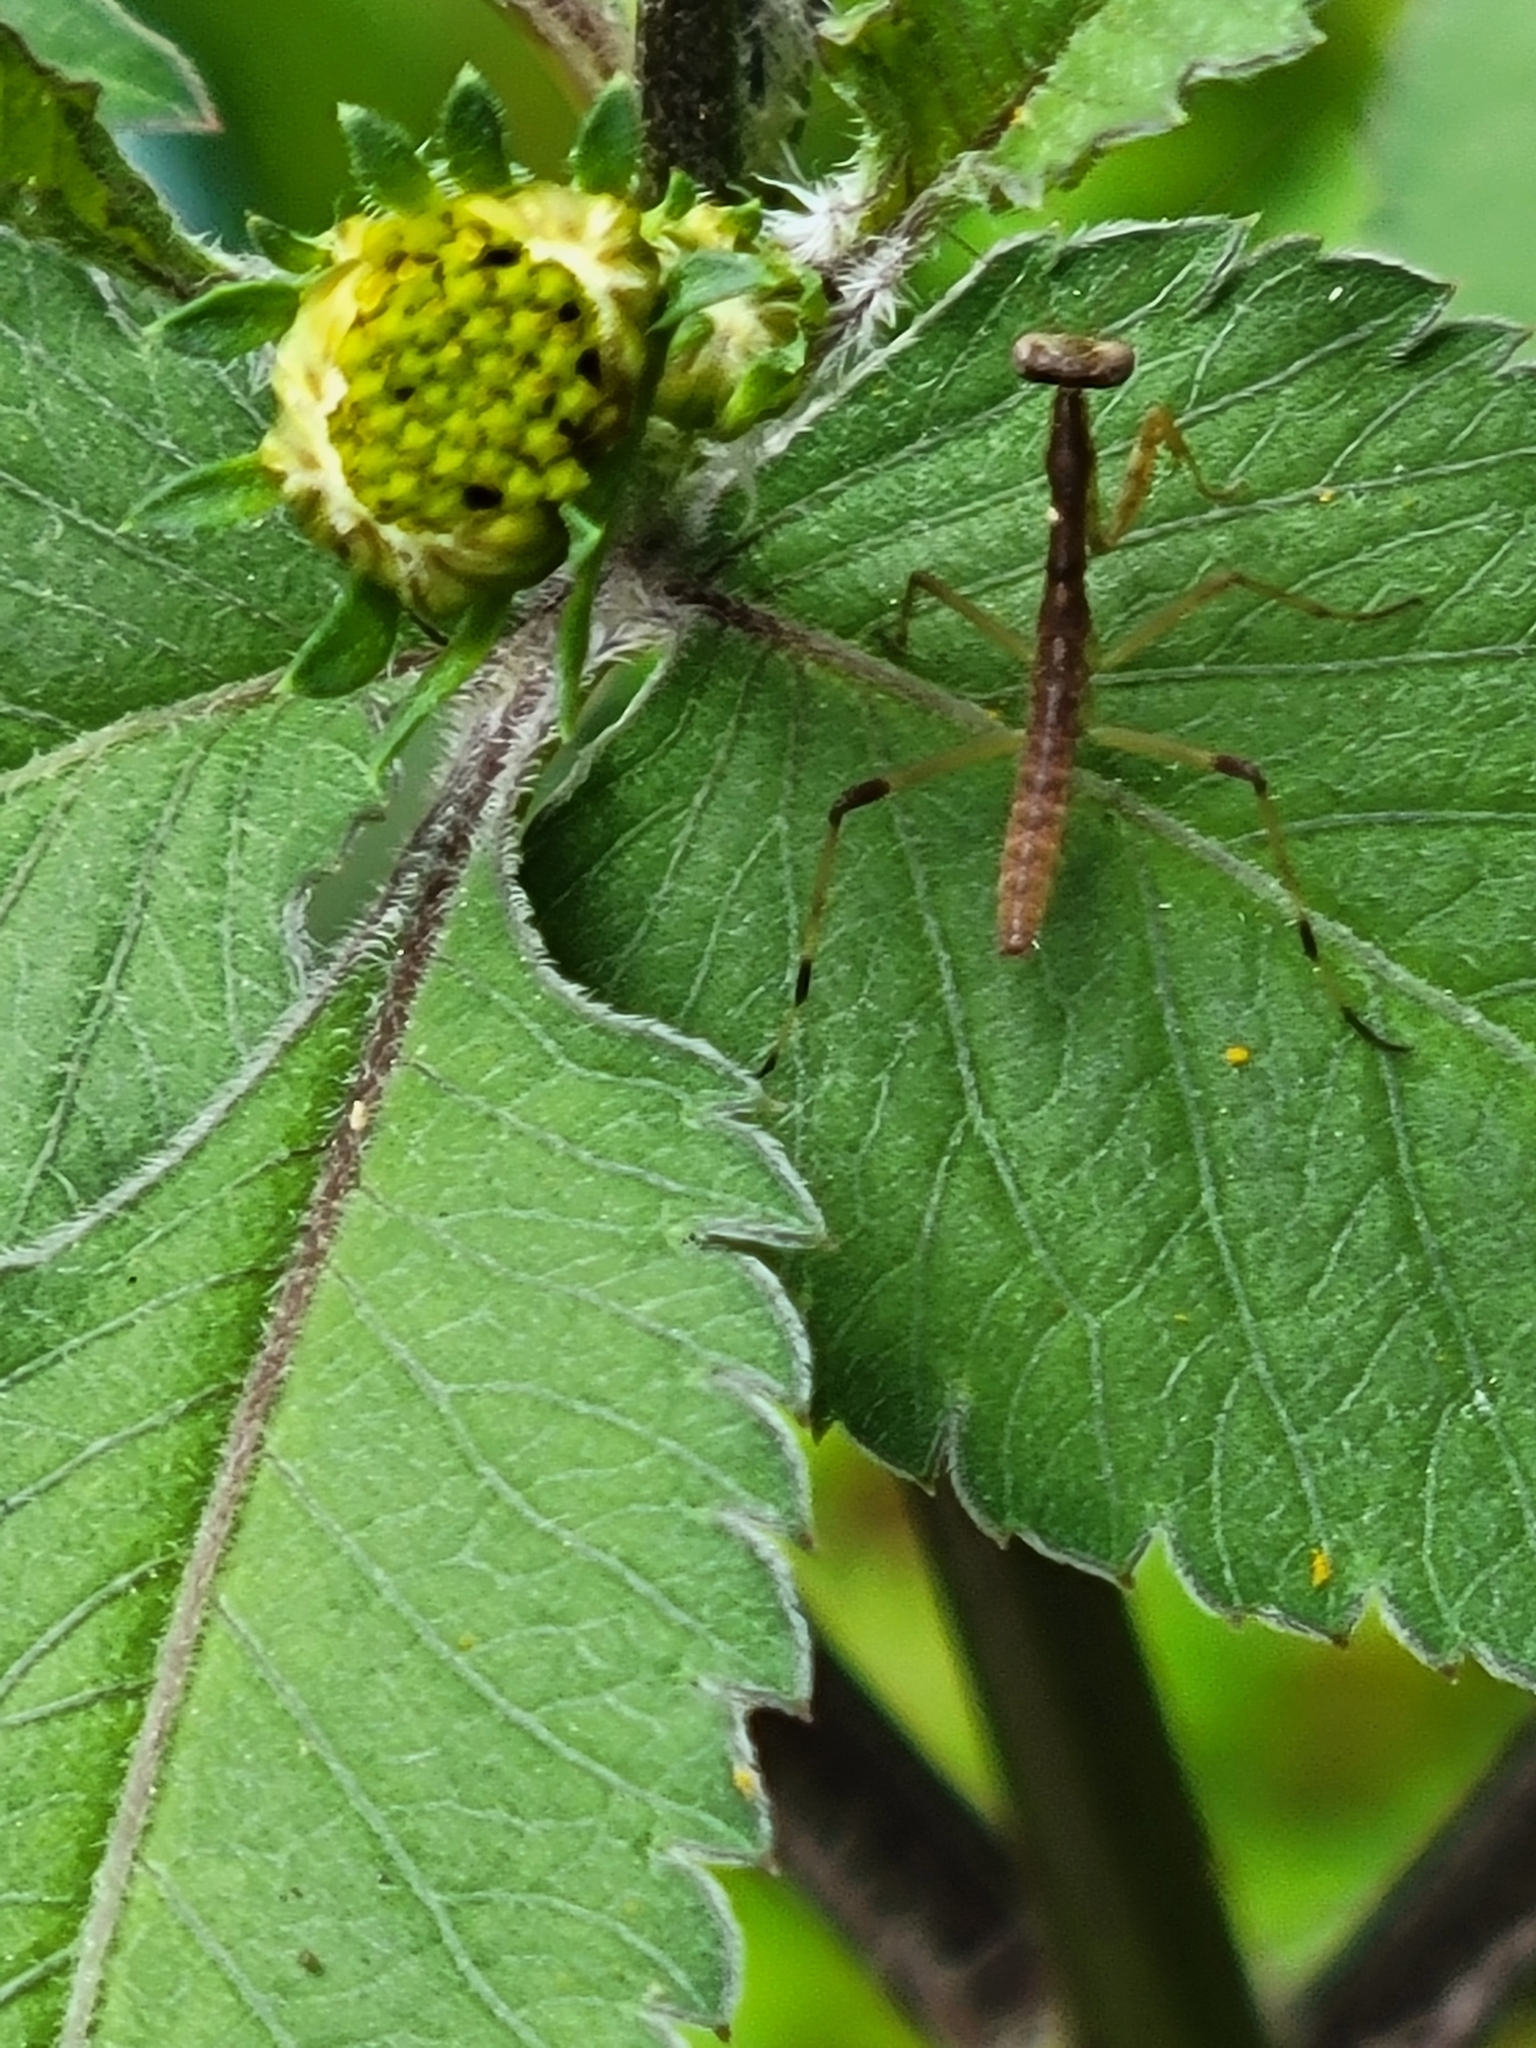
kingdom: Animalia
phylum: Arthropoda
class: Insecta
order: Mantodea
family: Mantidae
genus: Stagmomantis
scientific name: Stagmomantis carolina
